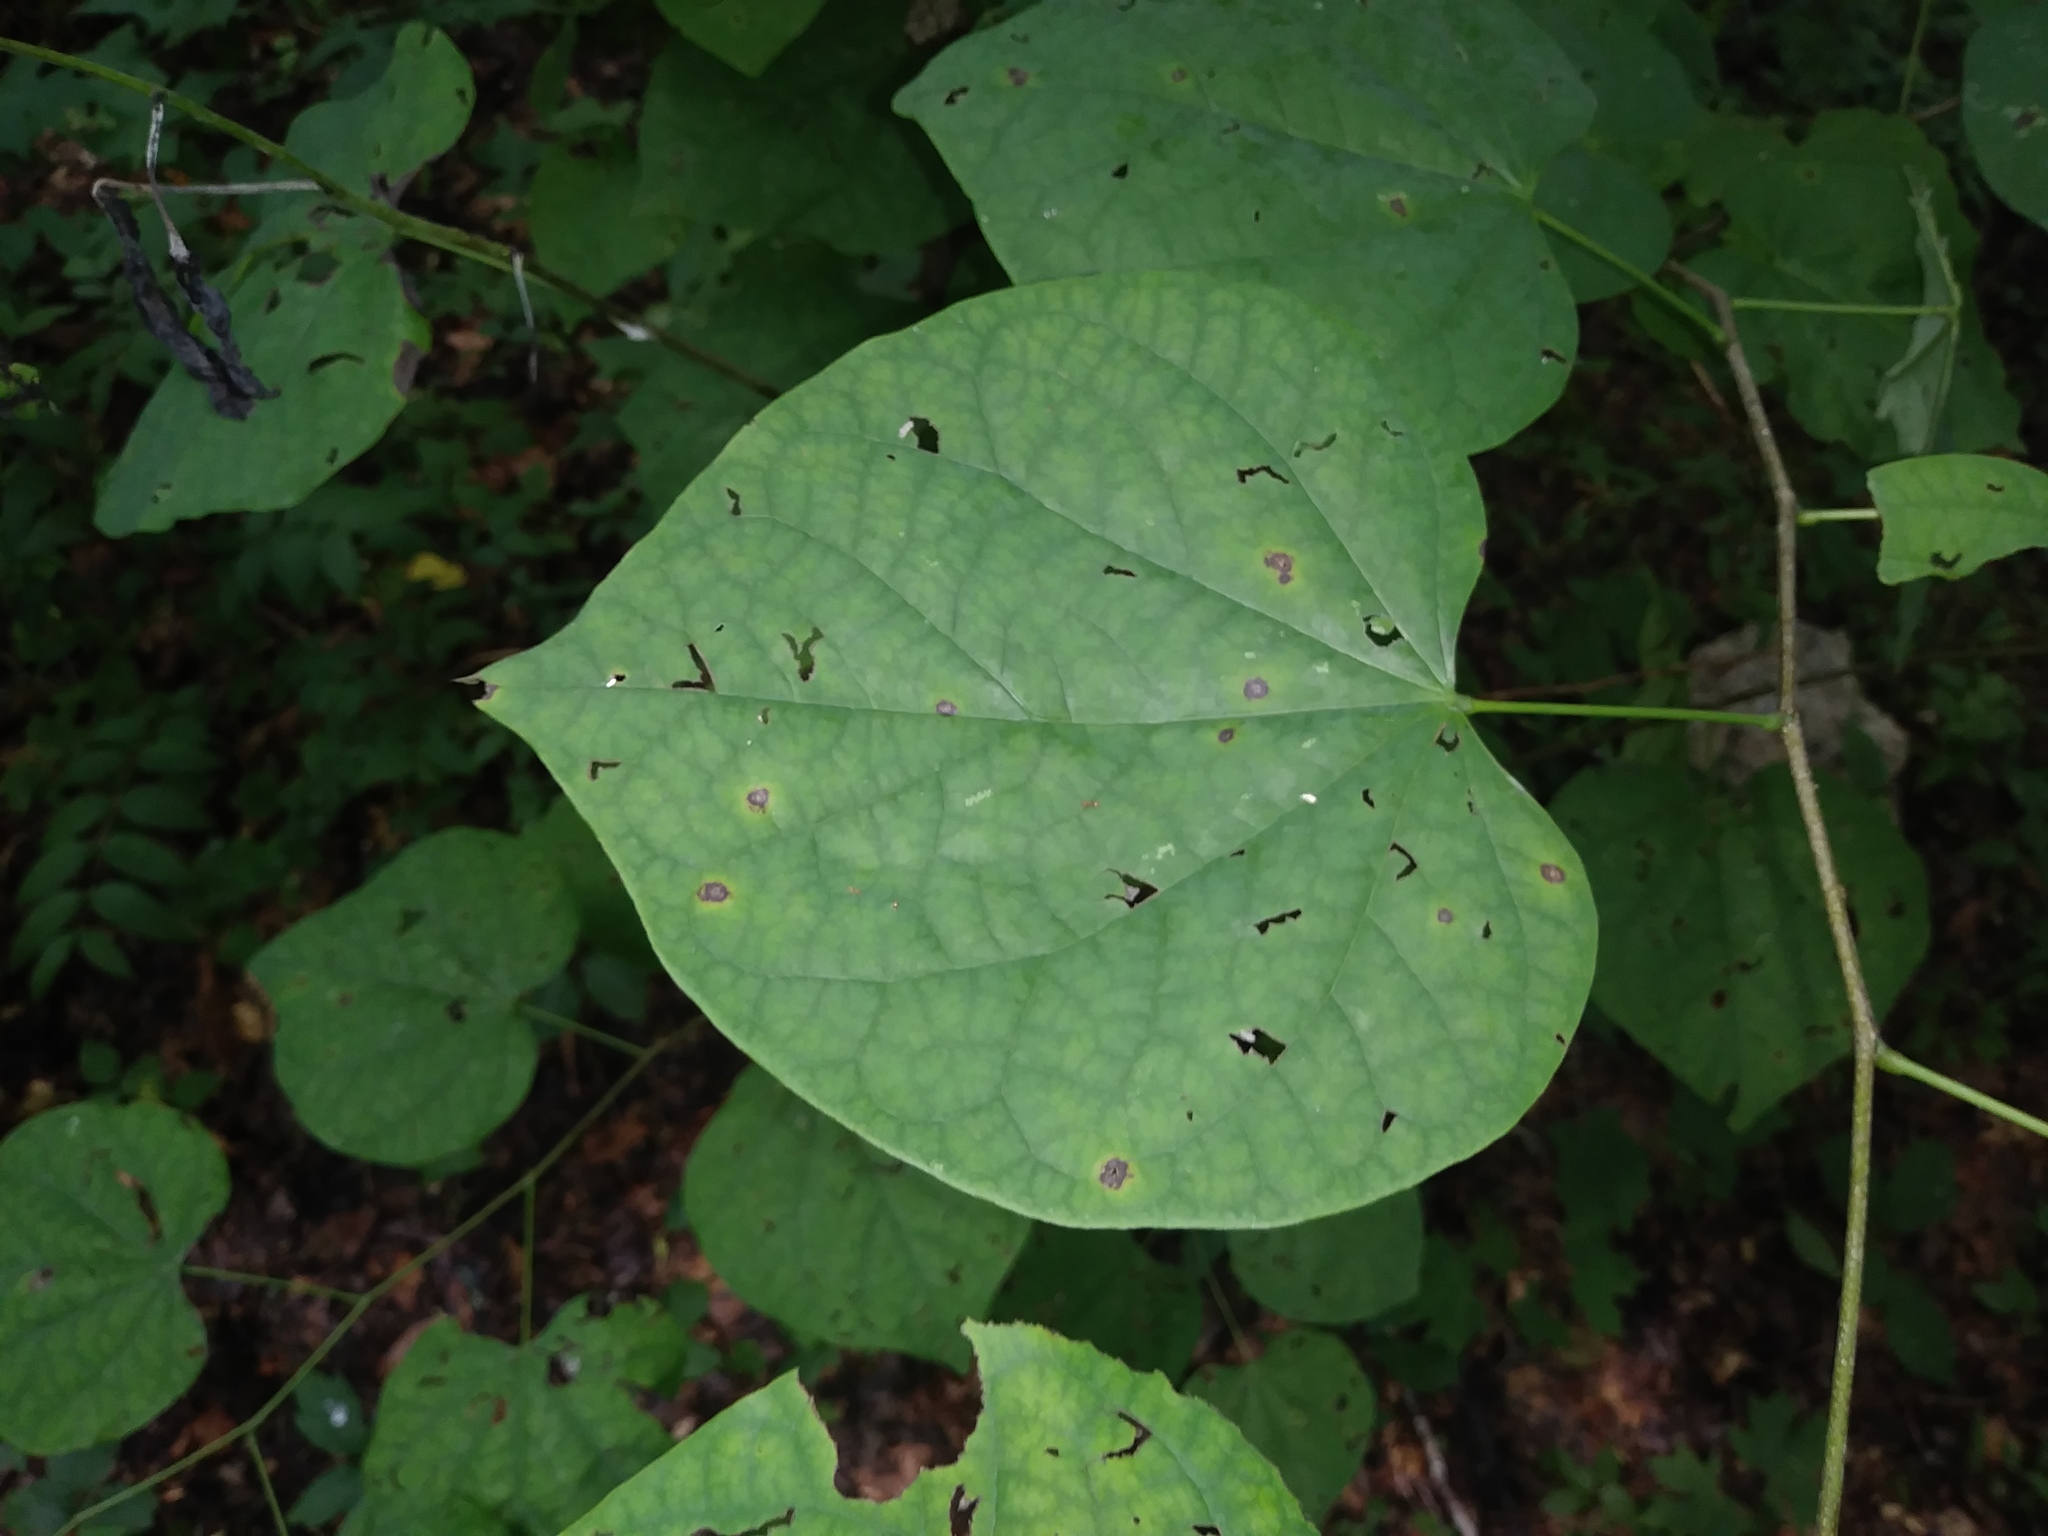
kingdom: Plantae
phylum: Tracheophyta
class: Magnoliopsida
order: Fabales
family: Fabaceae
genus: Cercis
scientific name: Cercis canadensis
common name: Eastern redbud
